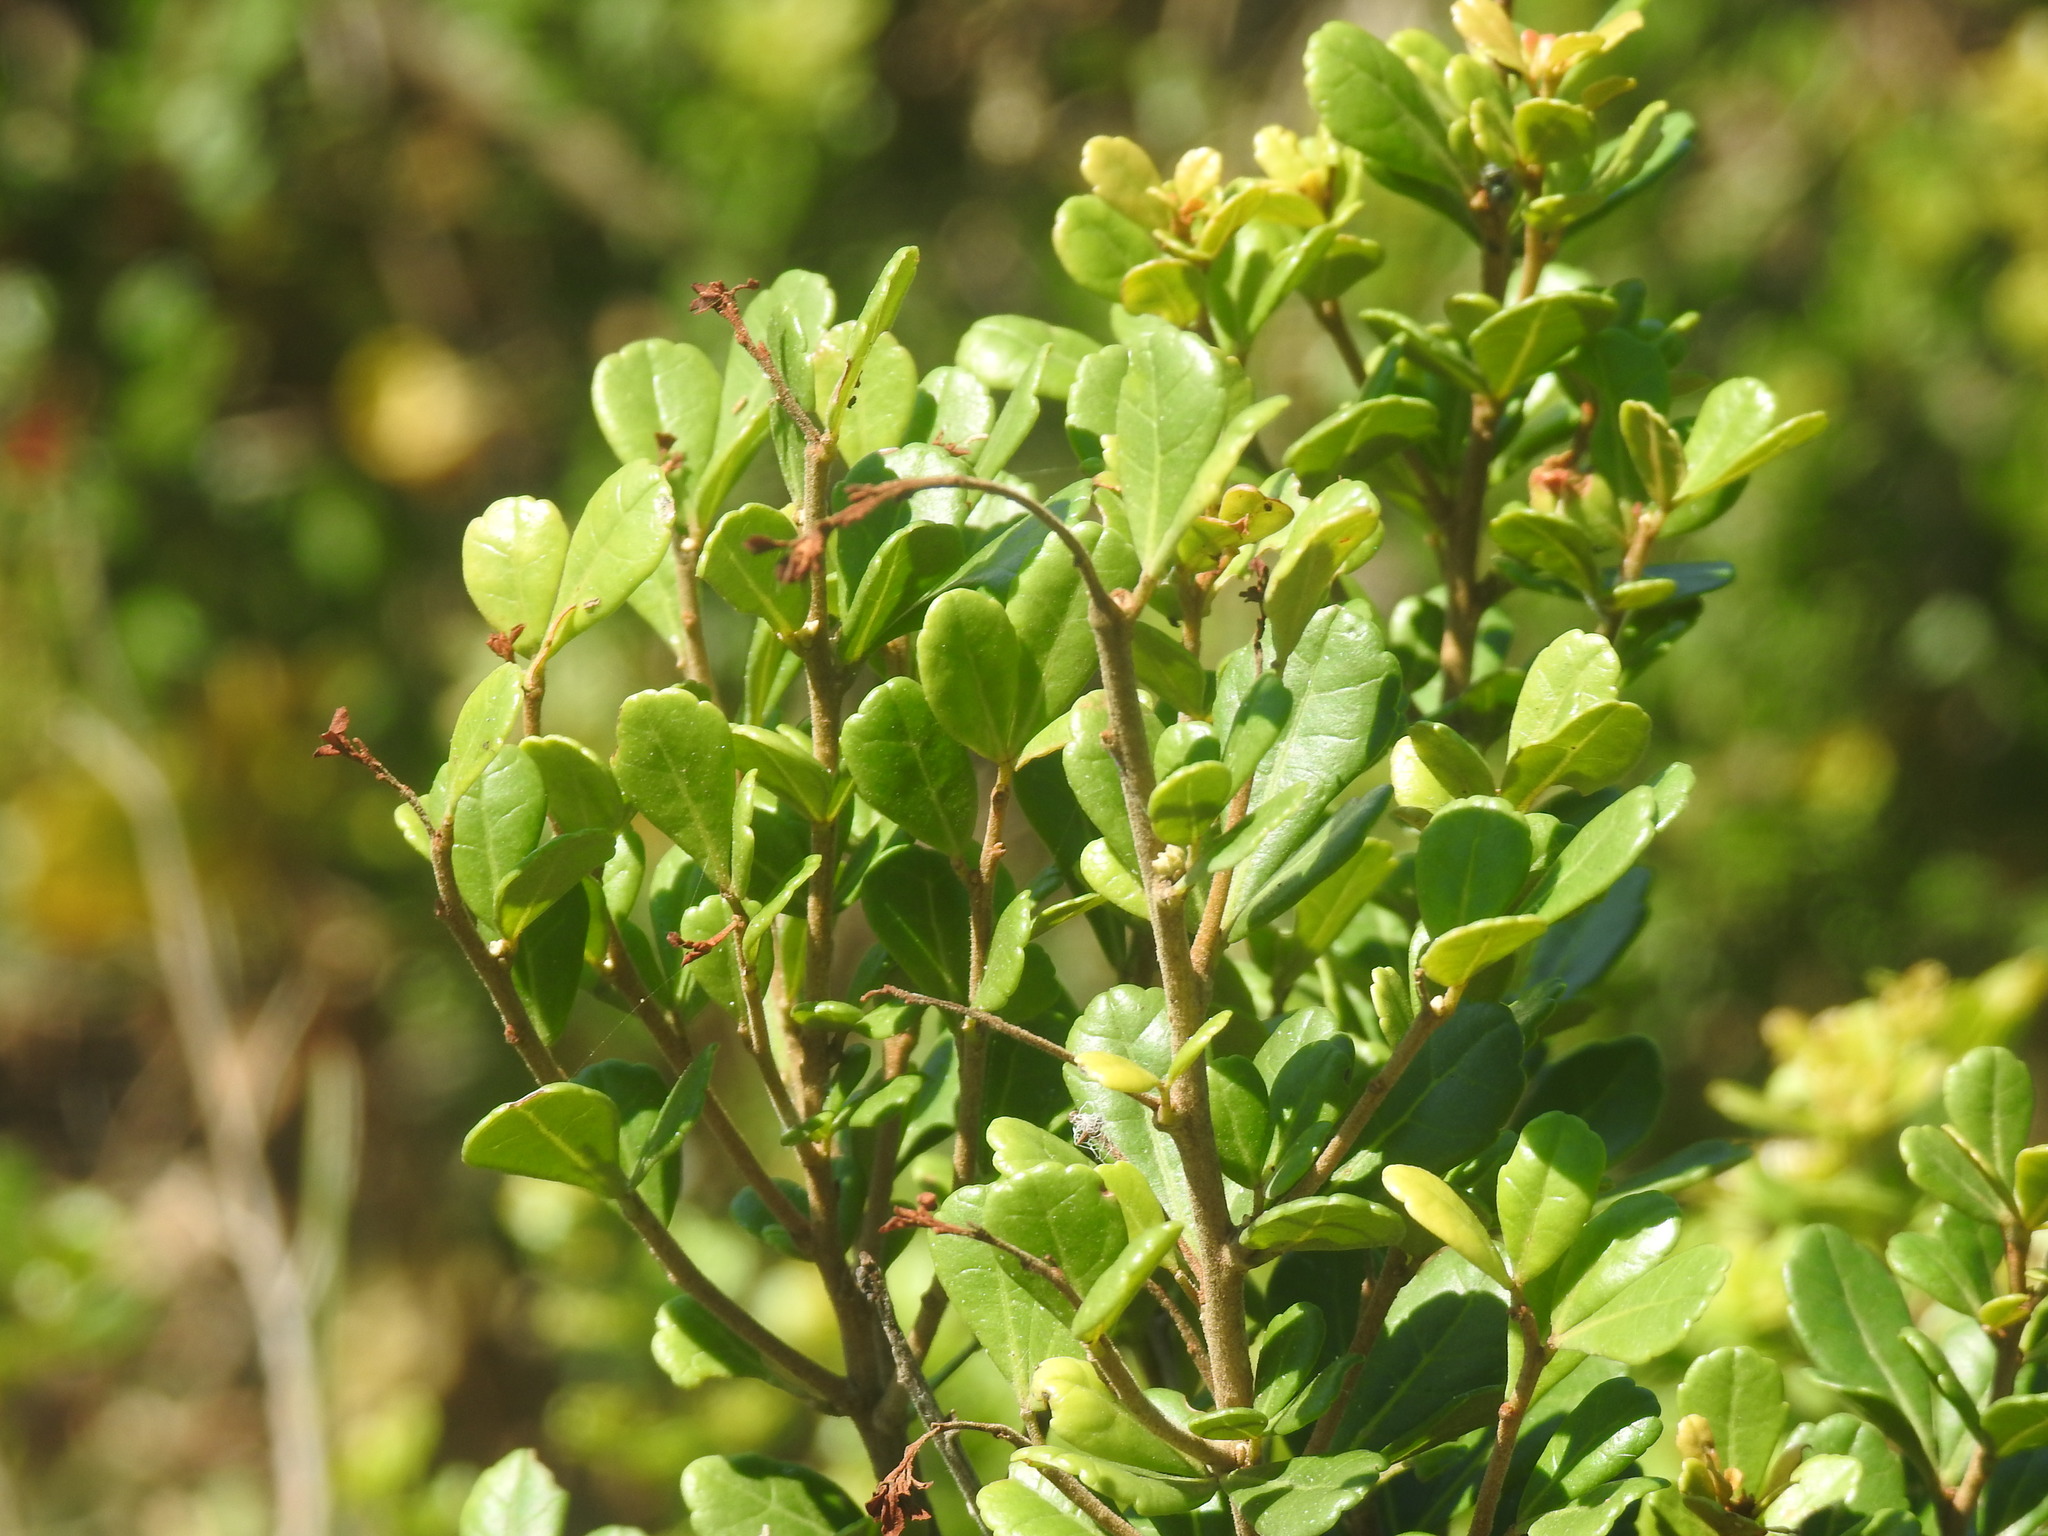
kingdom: Plantae
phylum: Tracheophyta
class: Magnoliopsida
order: Sapindales
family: Anacardiaceae
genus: Searsia
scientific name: Searsia crenata
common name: Crowberry
